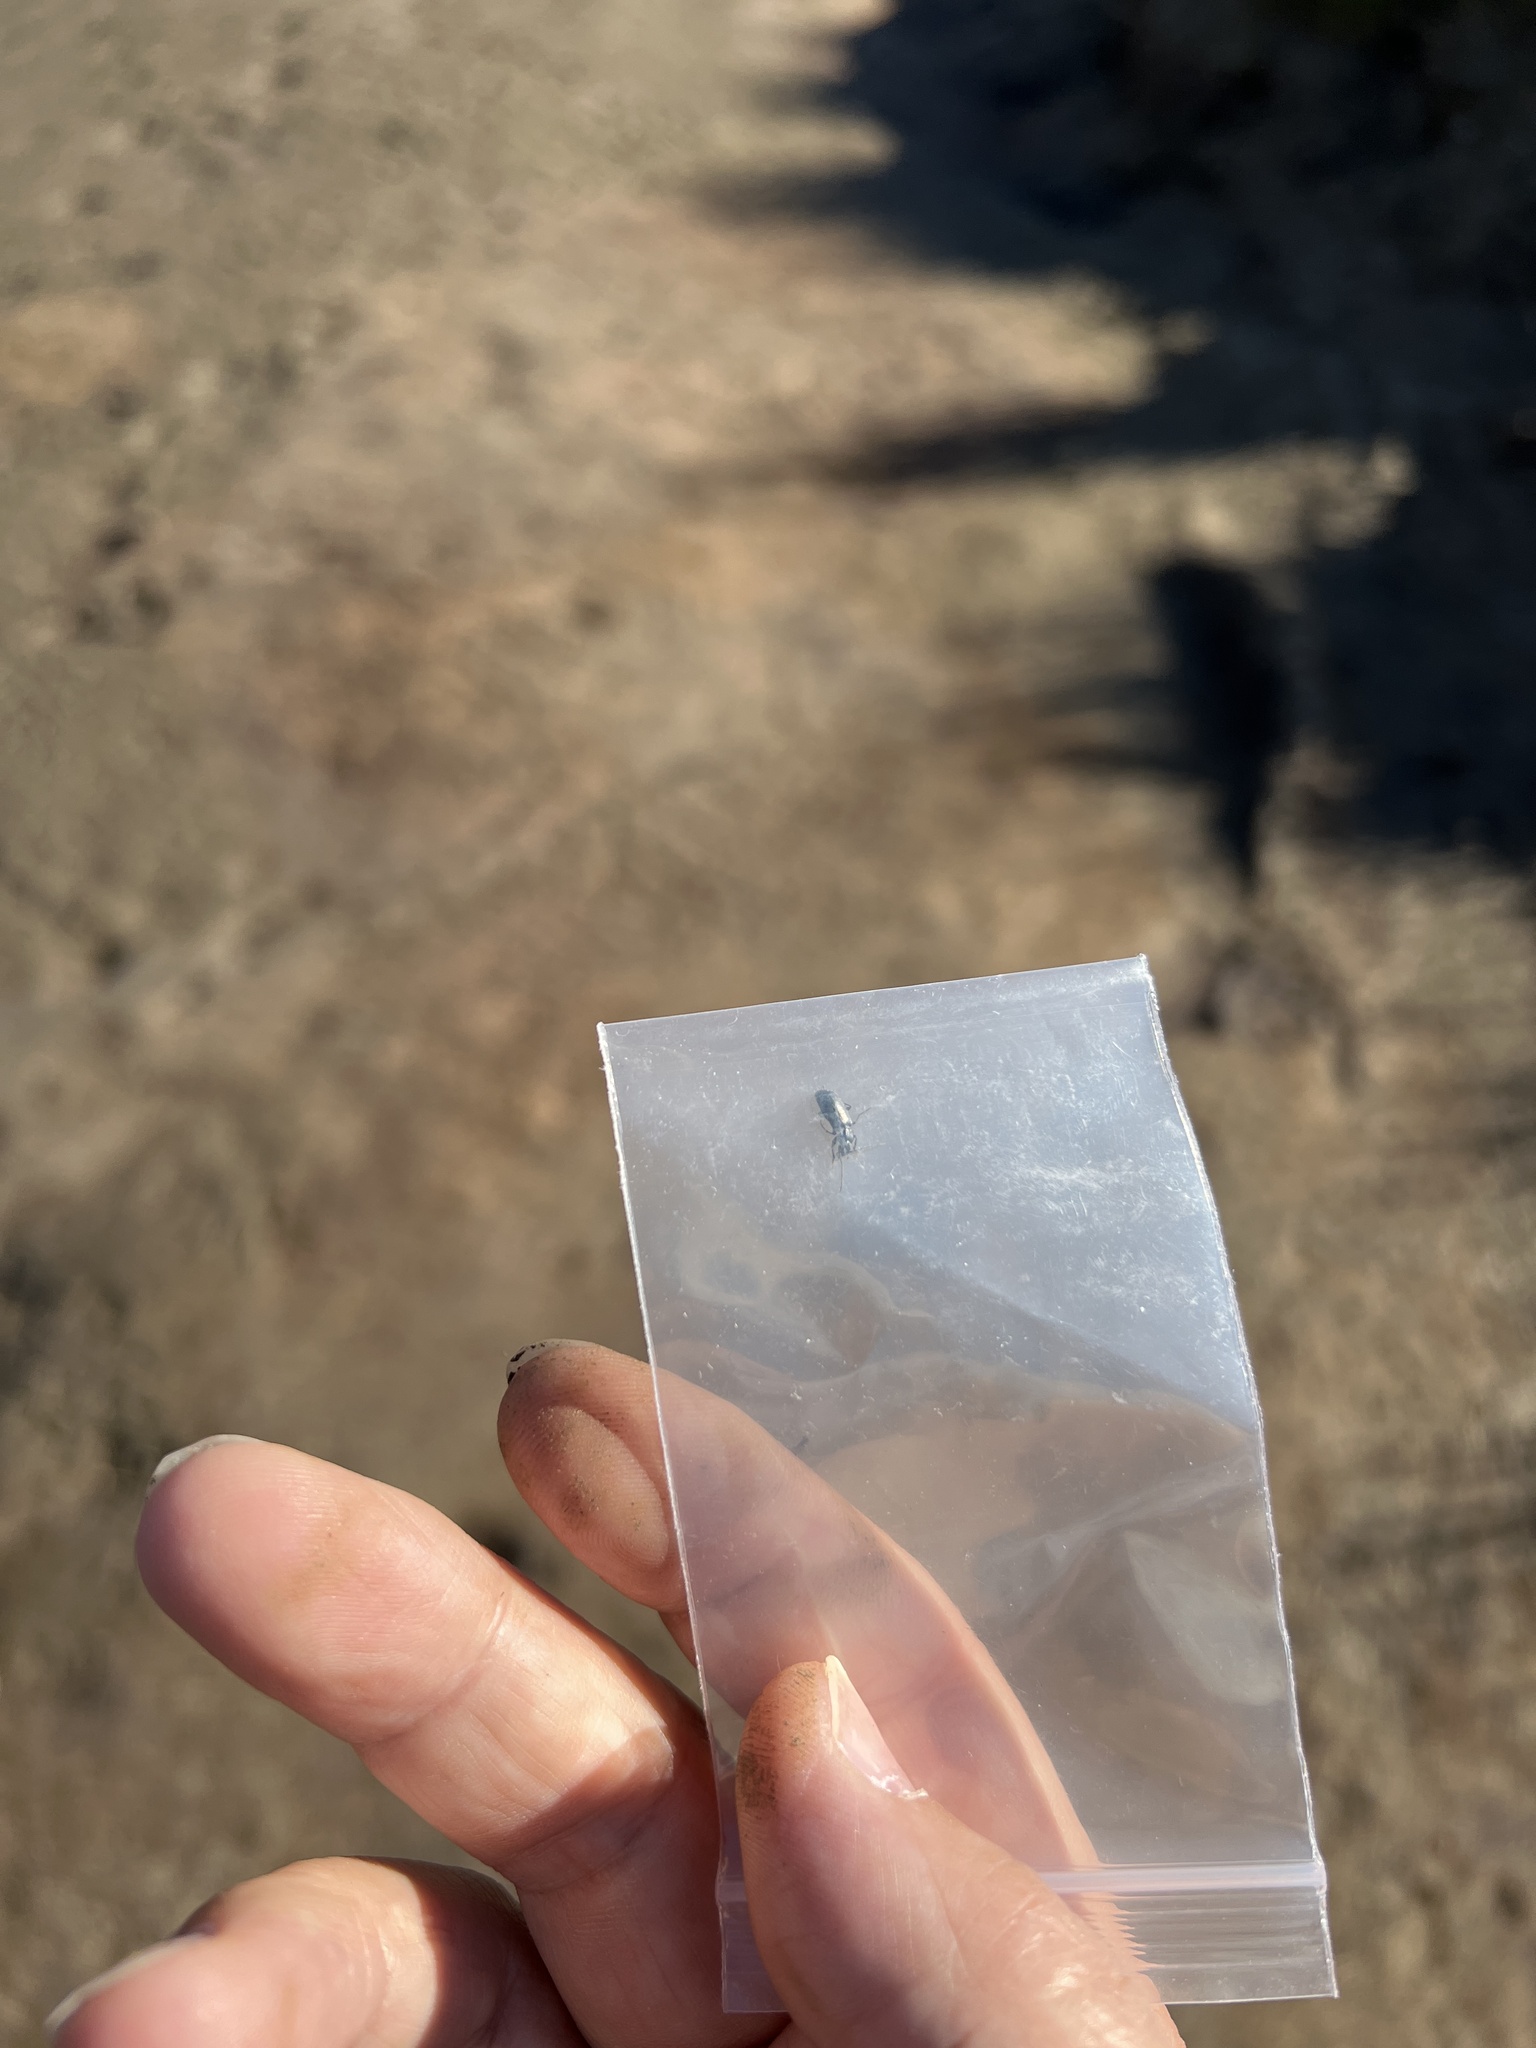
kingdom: Animalia
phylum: Arthropoda
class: Insecta
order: Coleoptera
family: Carabidae
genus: Badister
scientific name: Badister ferrugineus
